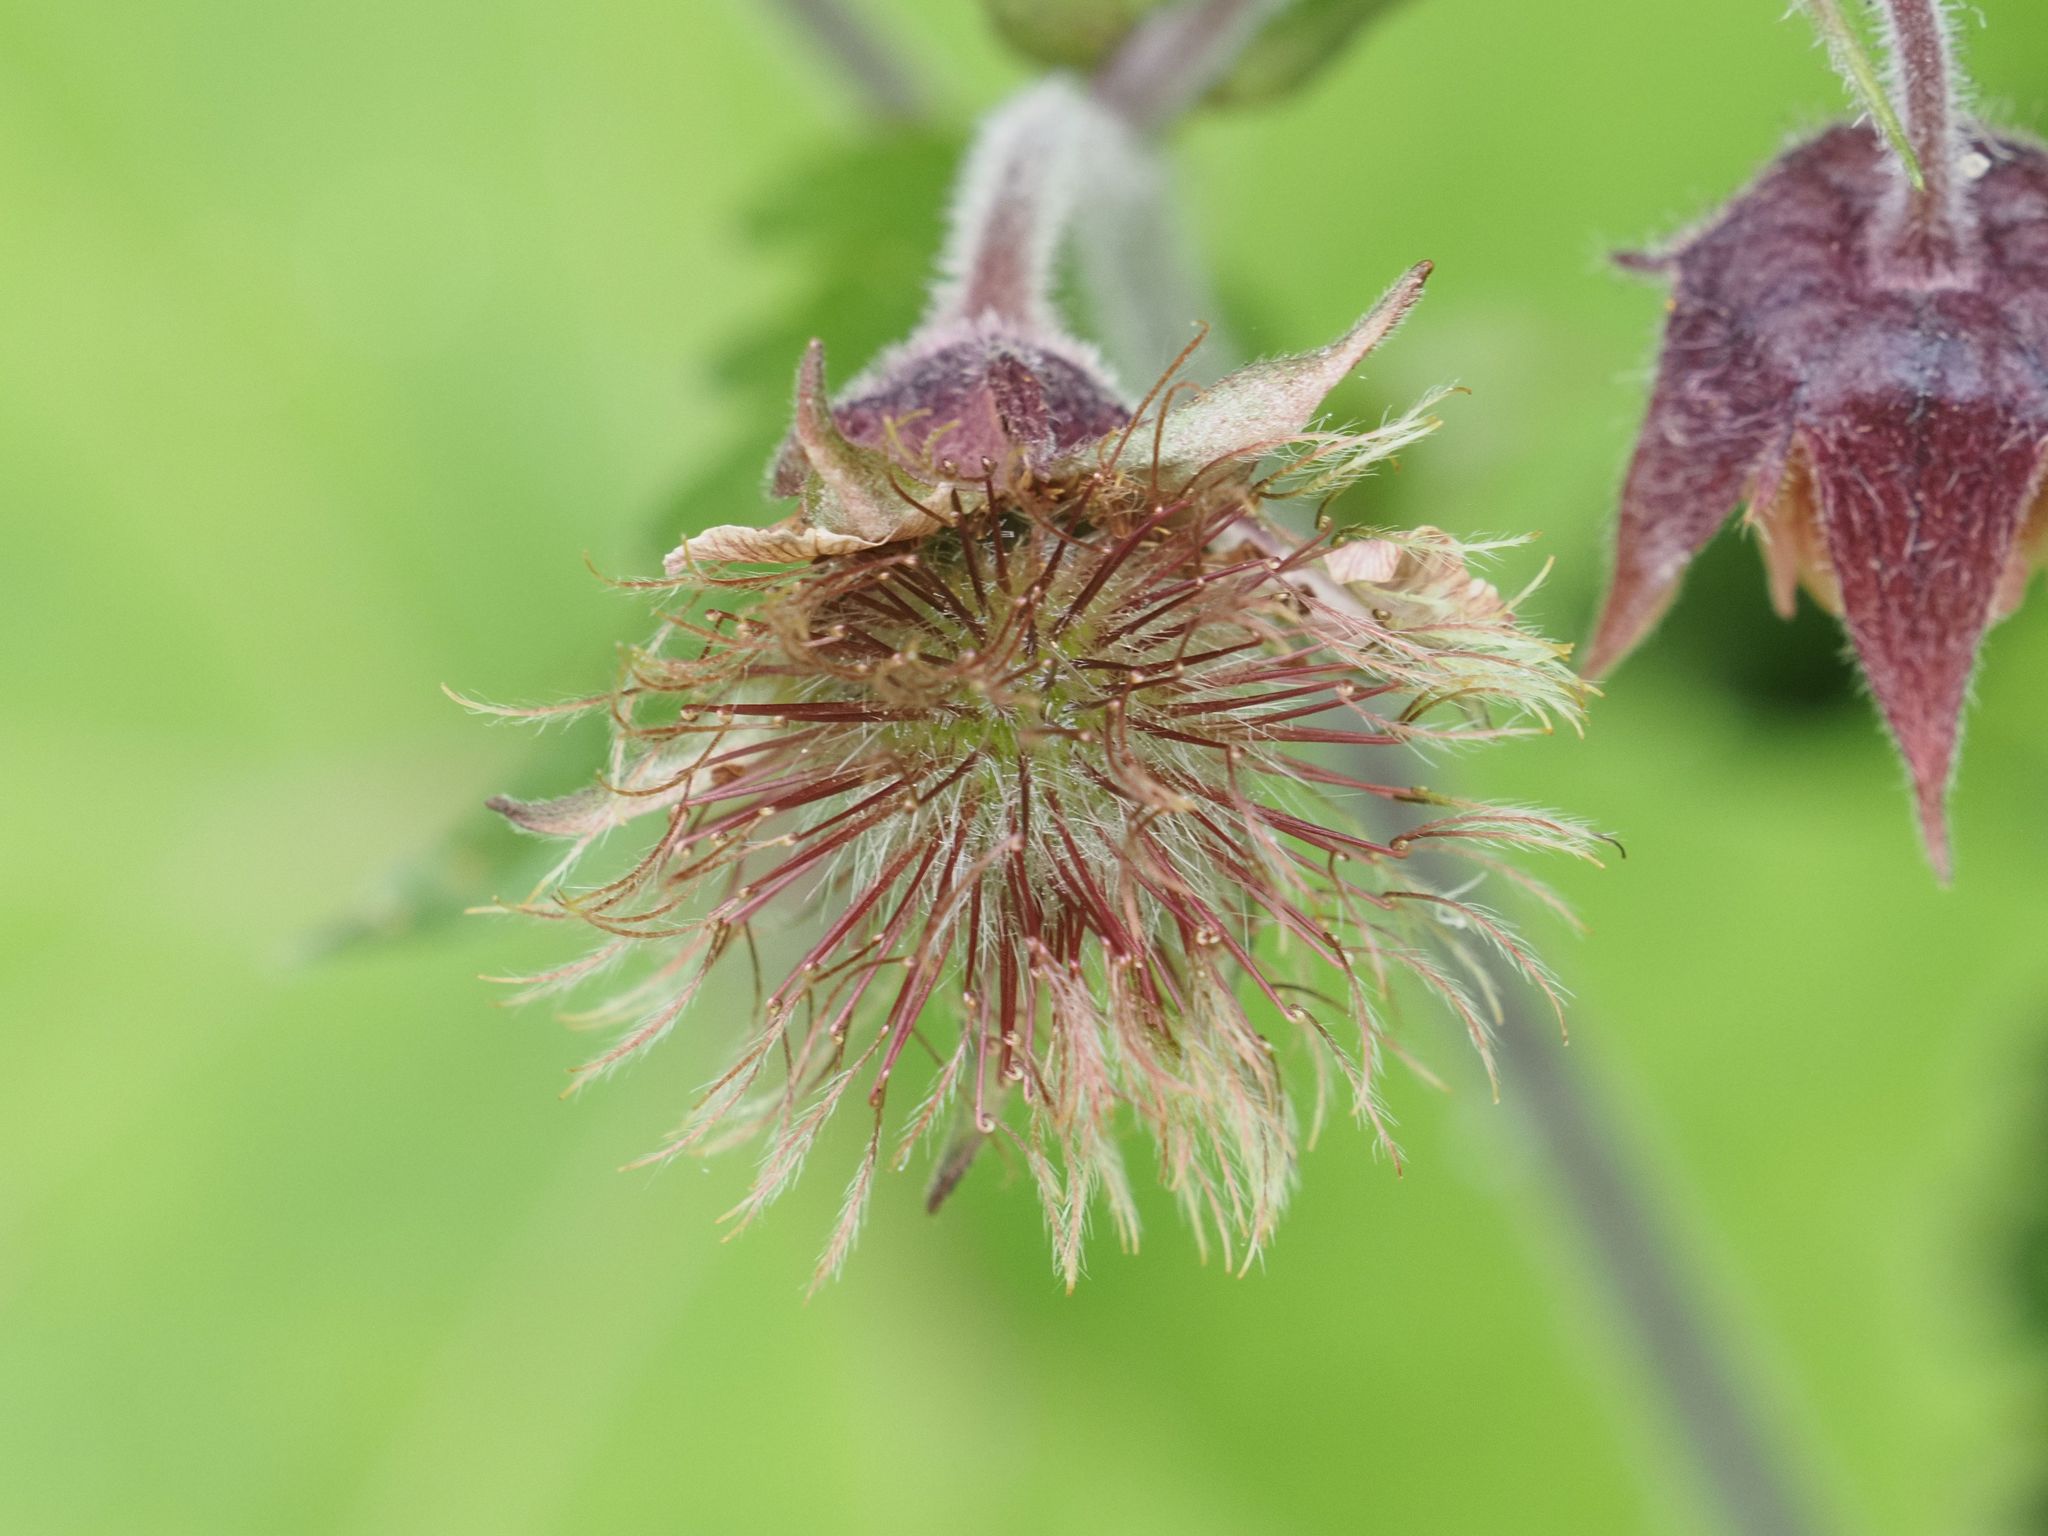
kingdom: Plantae
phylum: Tracheophyta
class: Magnoliopsida
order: Rosales
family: Rosaceae
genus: Geum
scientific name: Geum rivale
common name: Water avens
